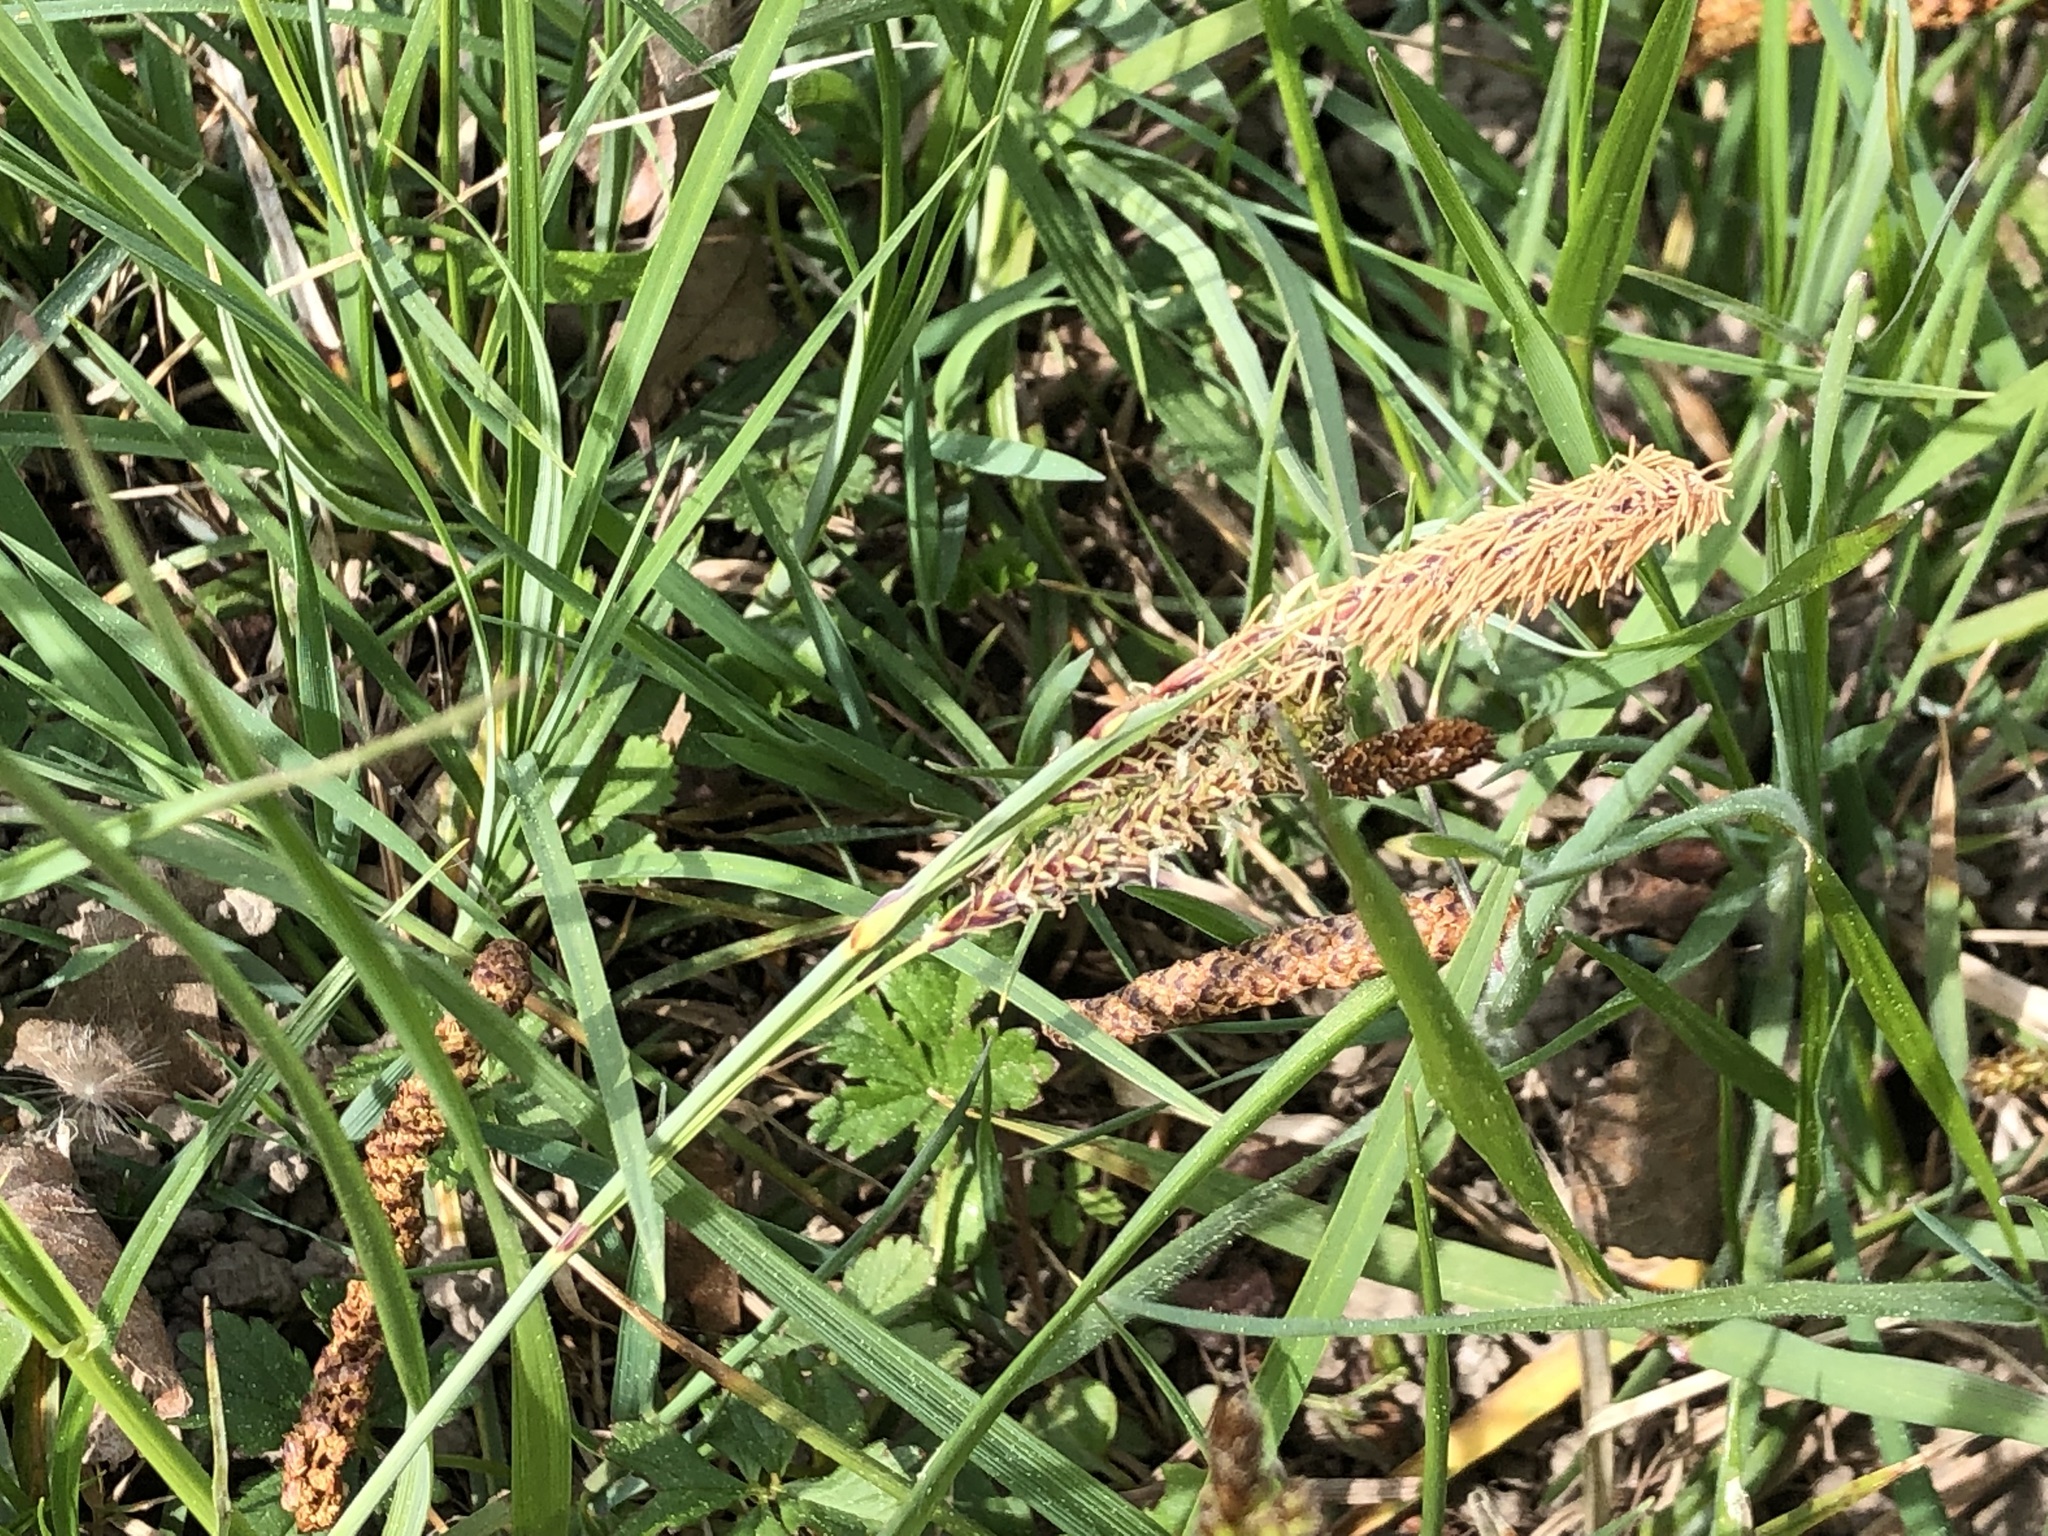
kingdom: Plantae
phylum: Tracheophyta
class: Liliopsida
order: Poales
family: Cyperaceae
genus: Carex
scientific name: Carex flacca
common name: Glaucous sedge
